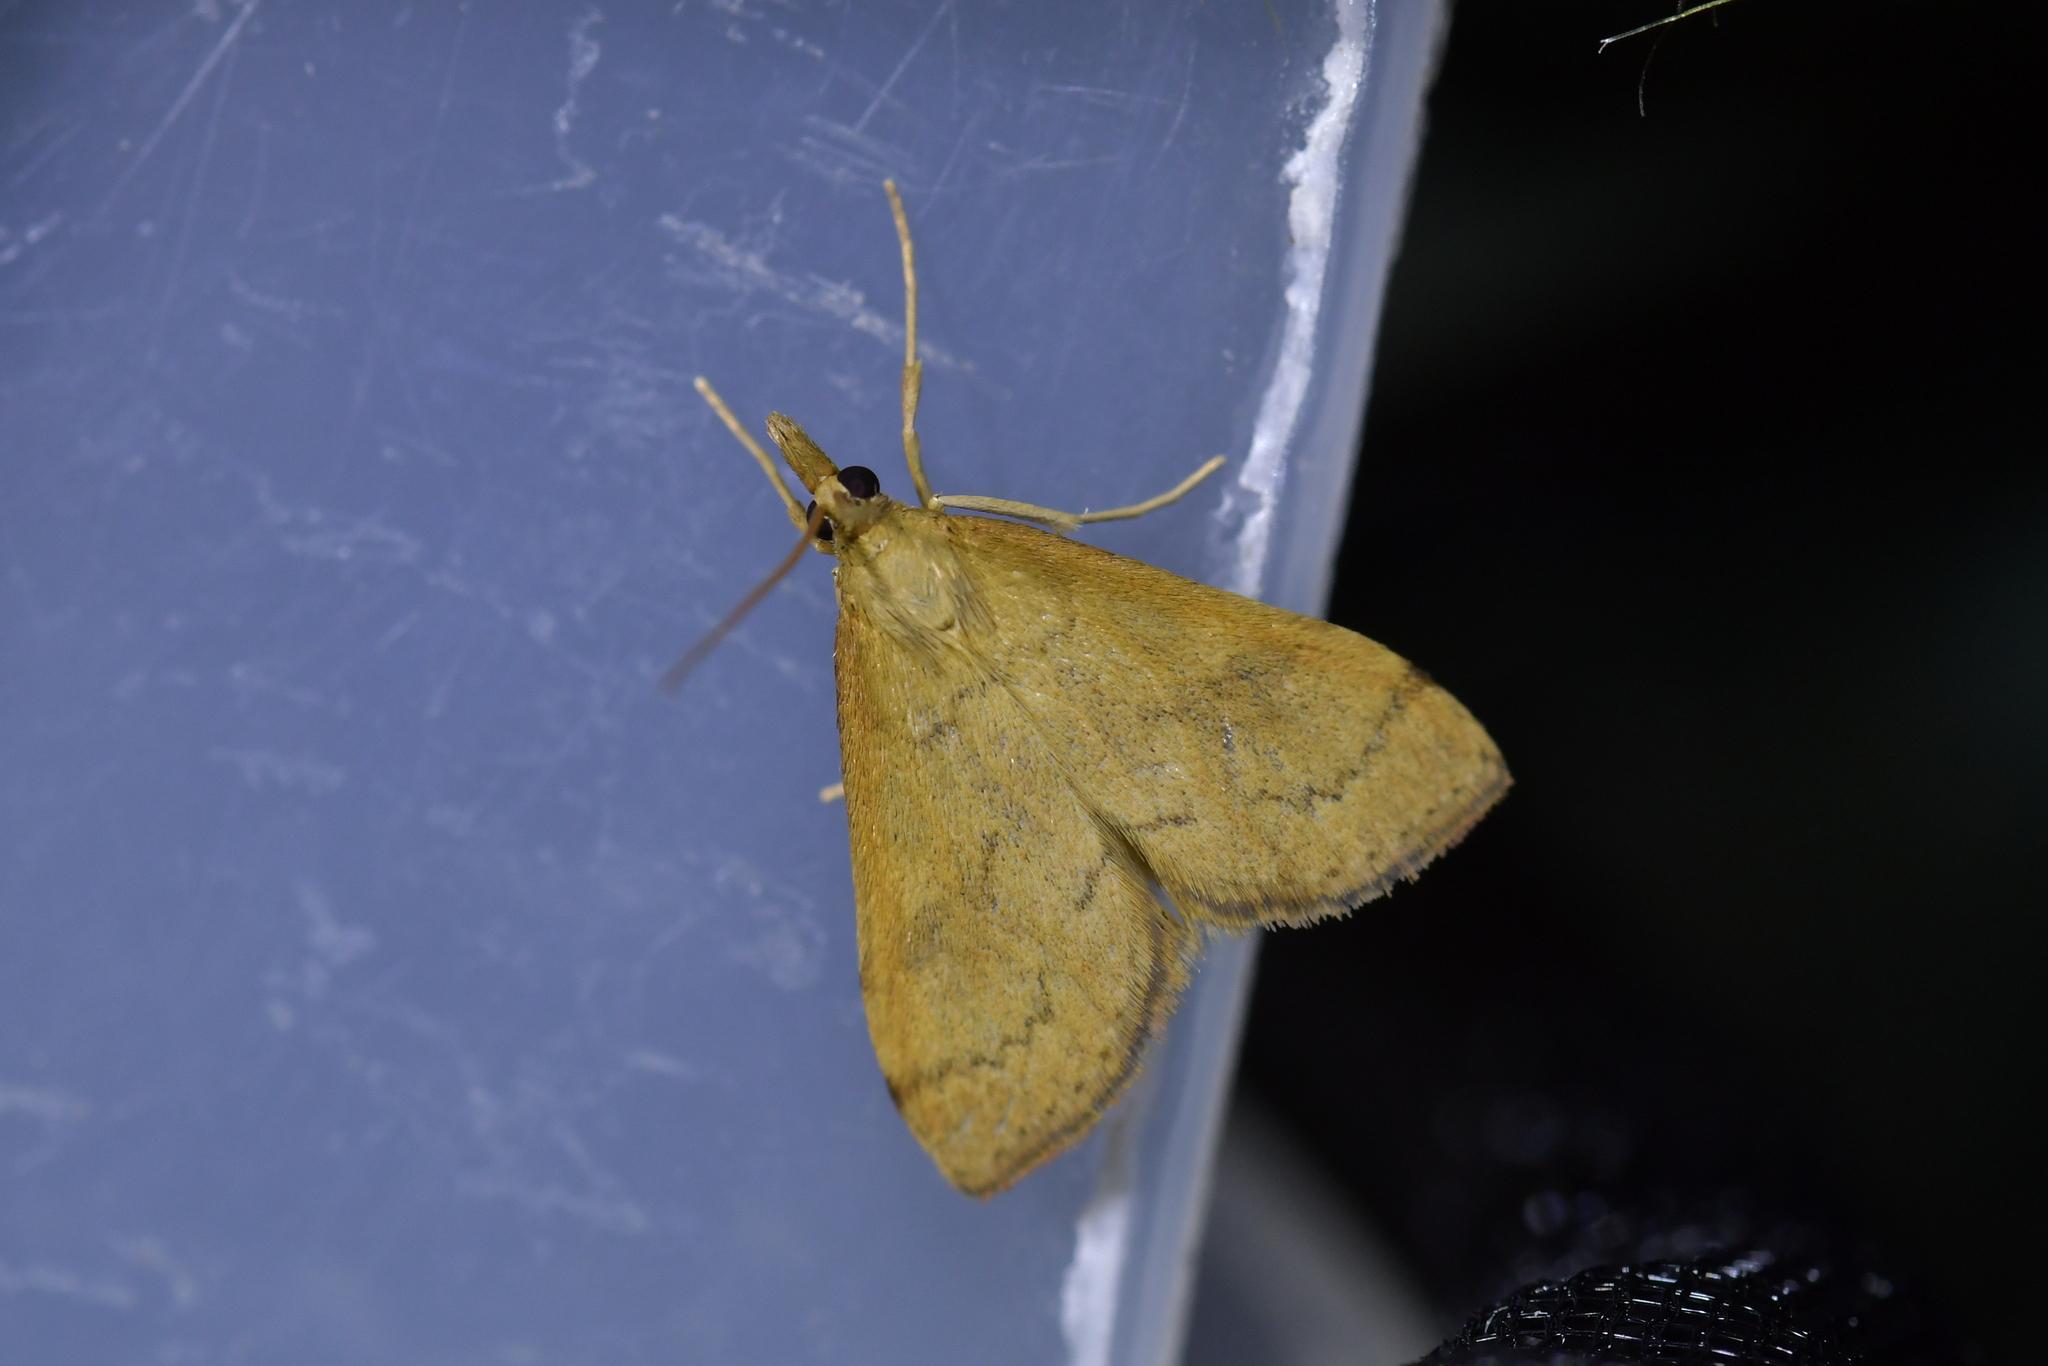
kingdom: Animalia
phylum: Arthropoda
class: Insecta
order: Lepidoptera
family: Crambidae
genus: Udea
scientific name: Udea Mnesictena flavidalis
